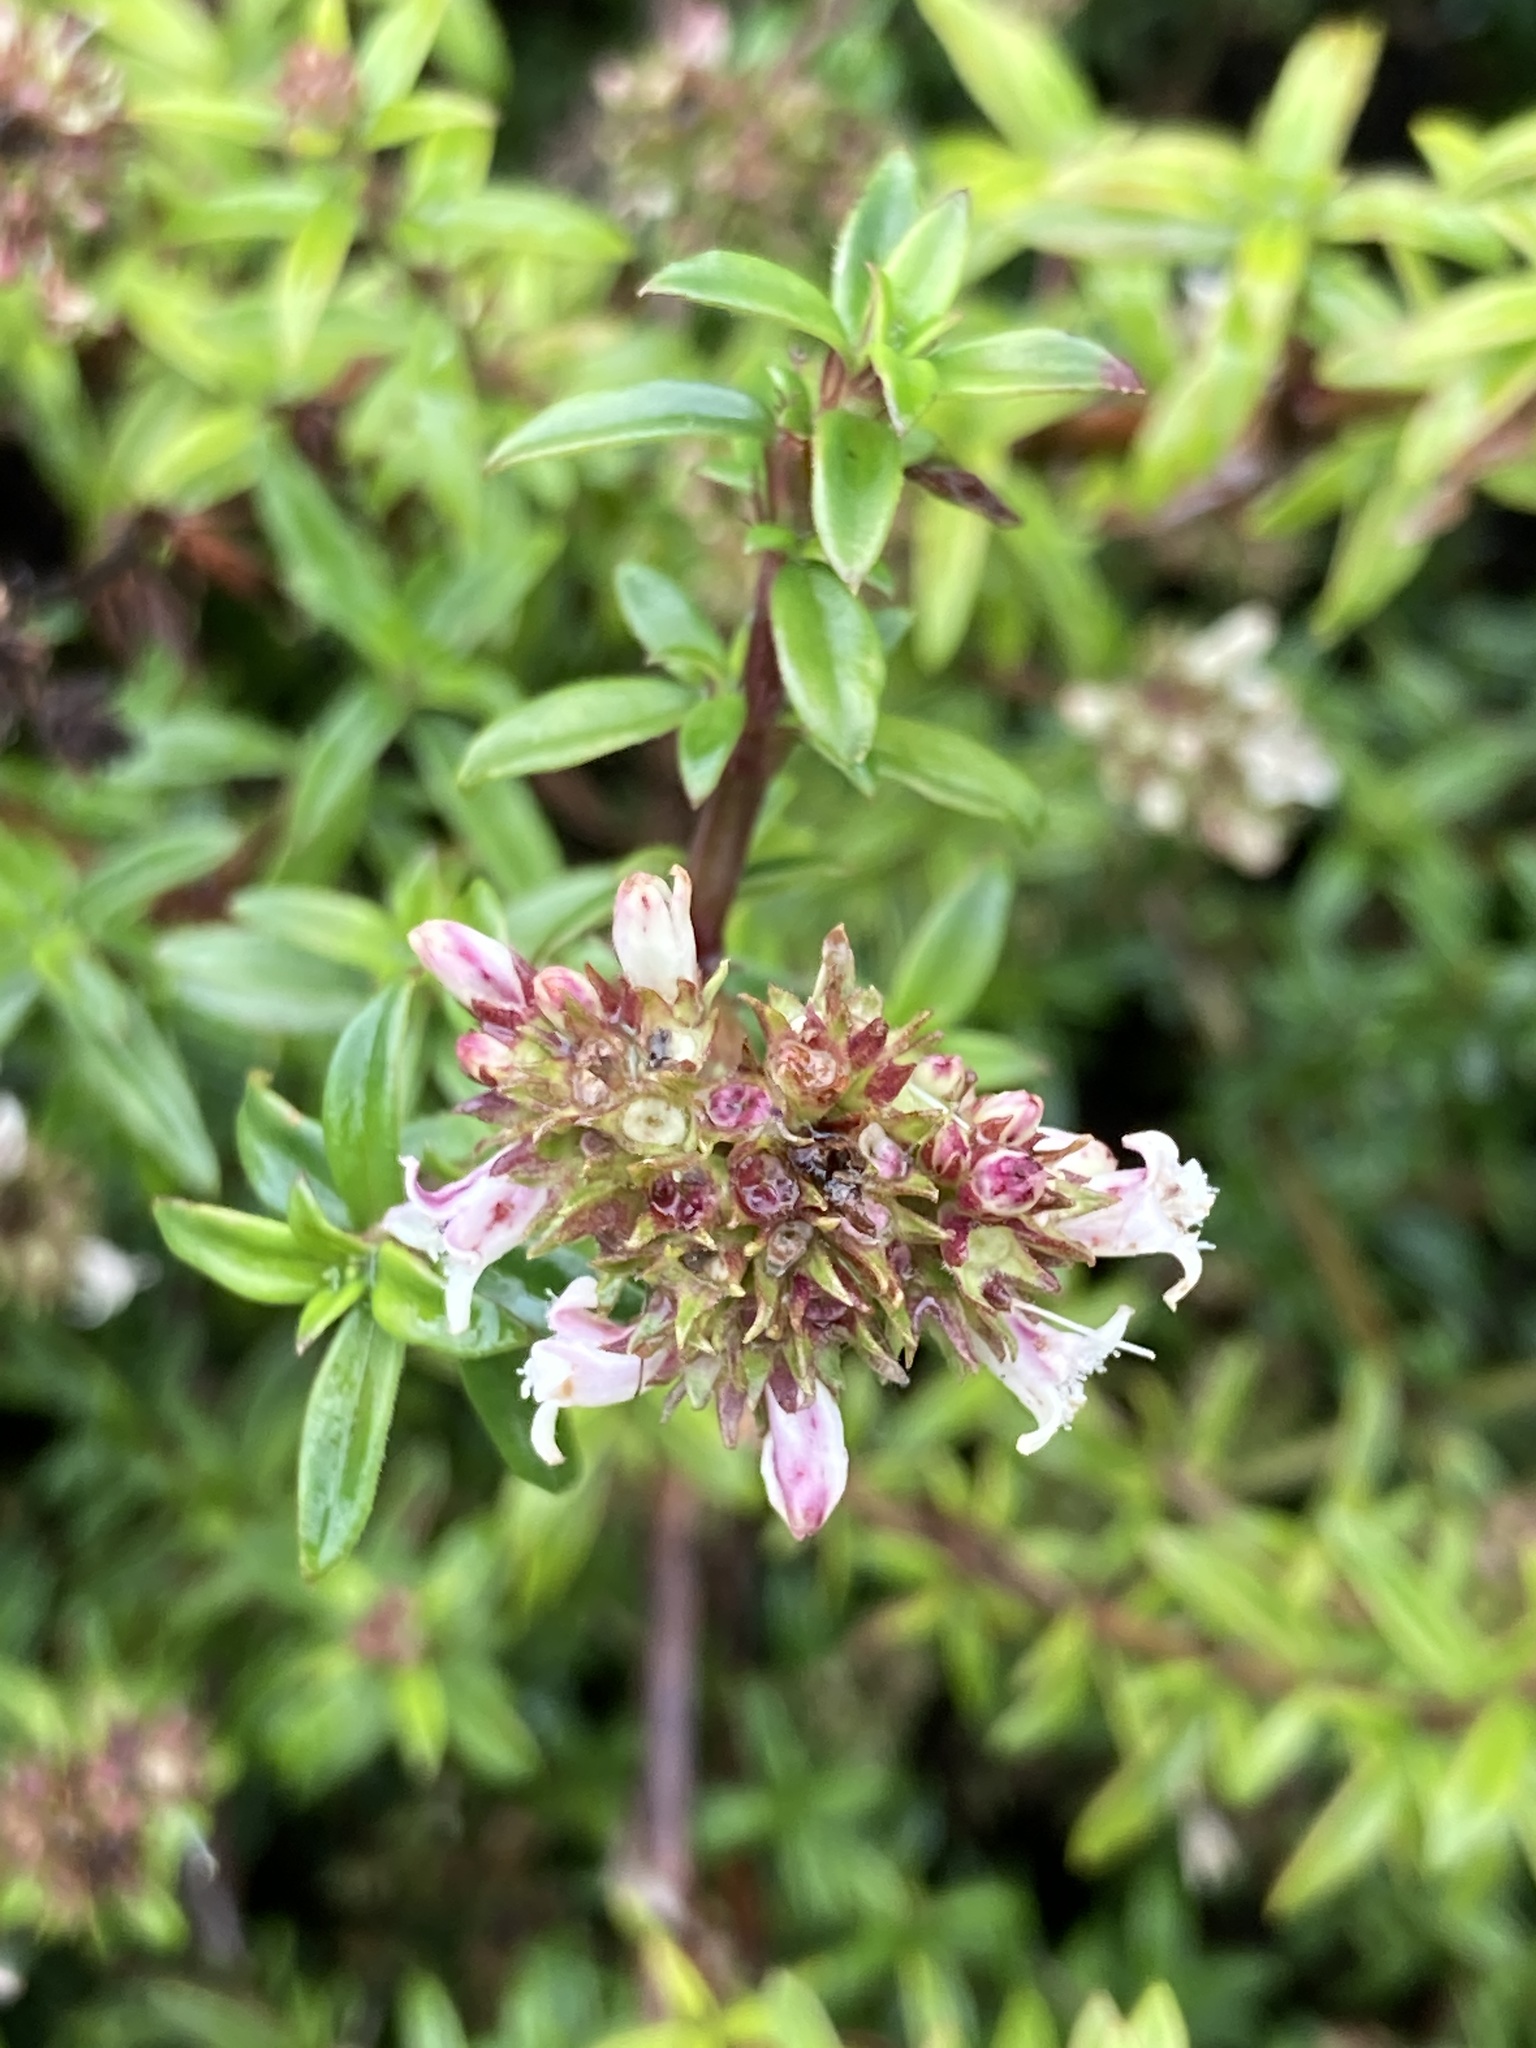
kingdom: Plantae
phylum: Tracheophyta
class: Magnoliopsida
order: Gentianales
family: Rubiaceae
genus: Galianthe
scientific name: Galianthe bogotensis
